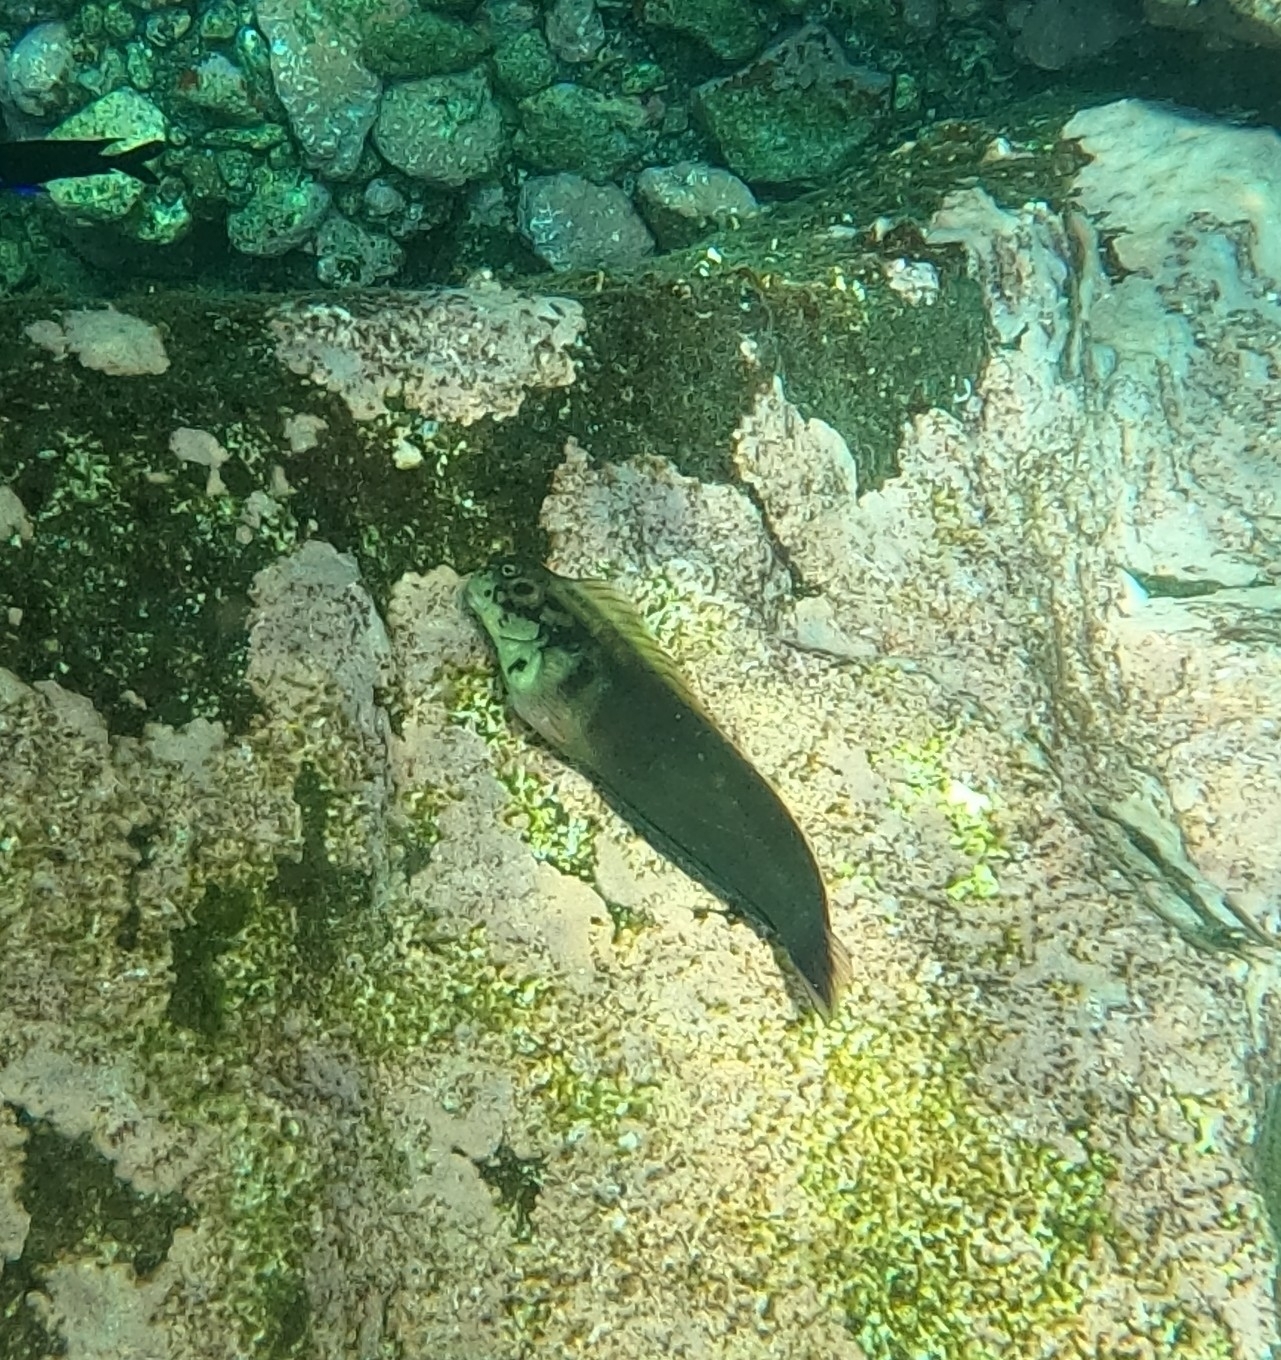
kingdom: Animalia
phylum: Chordata
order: Perciformes
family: Blenniidae
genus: Ophioblennius
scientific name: Ophioblennius atlanticus
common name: Redlip blenny
